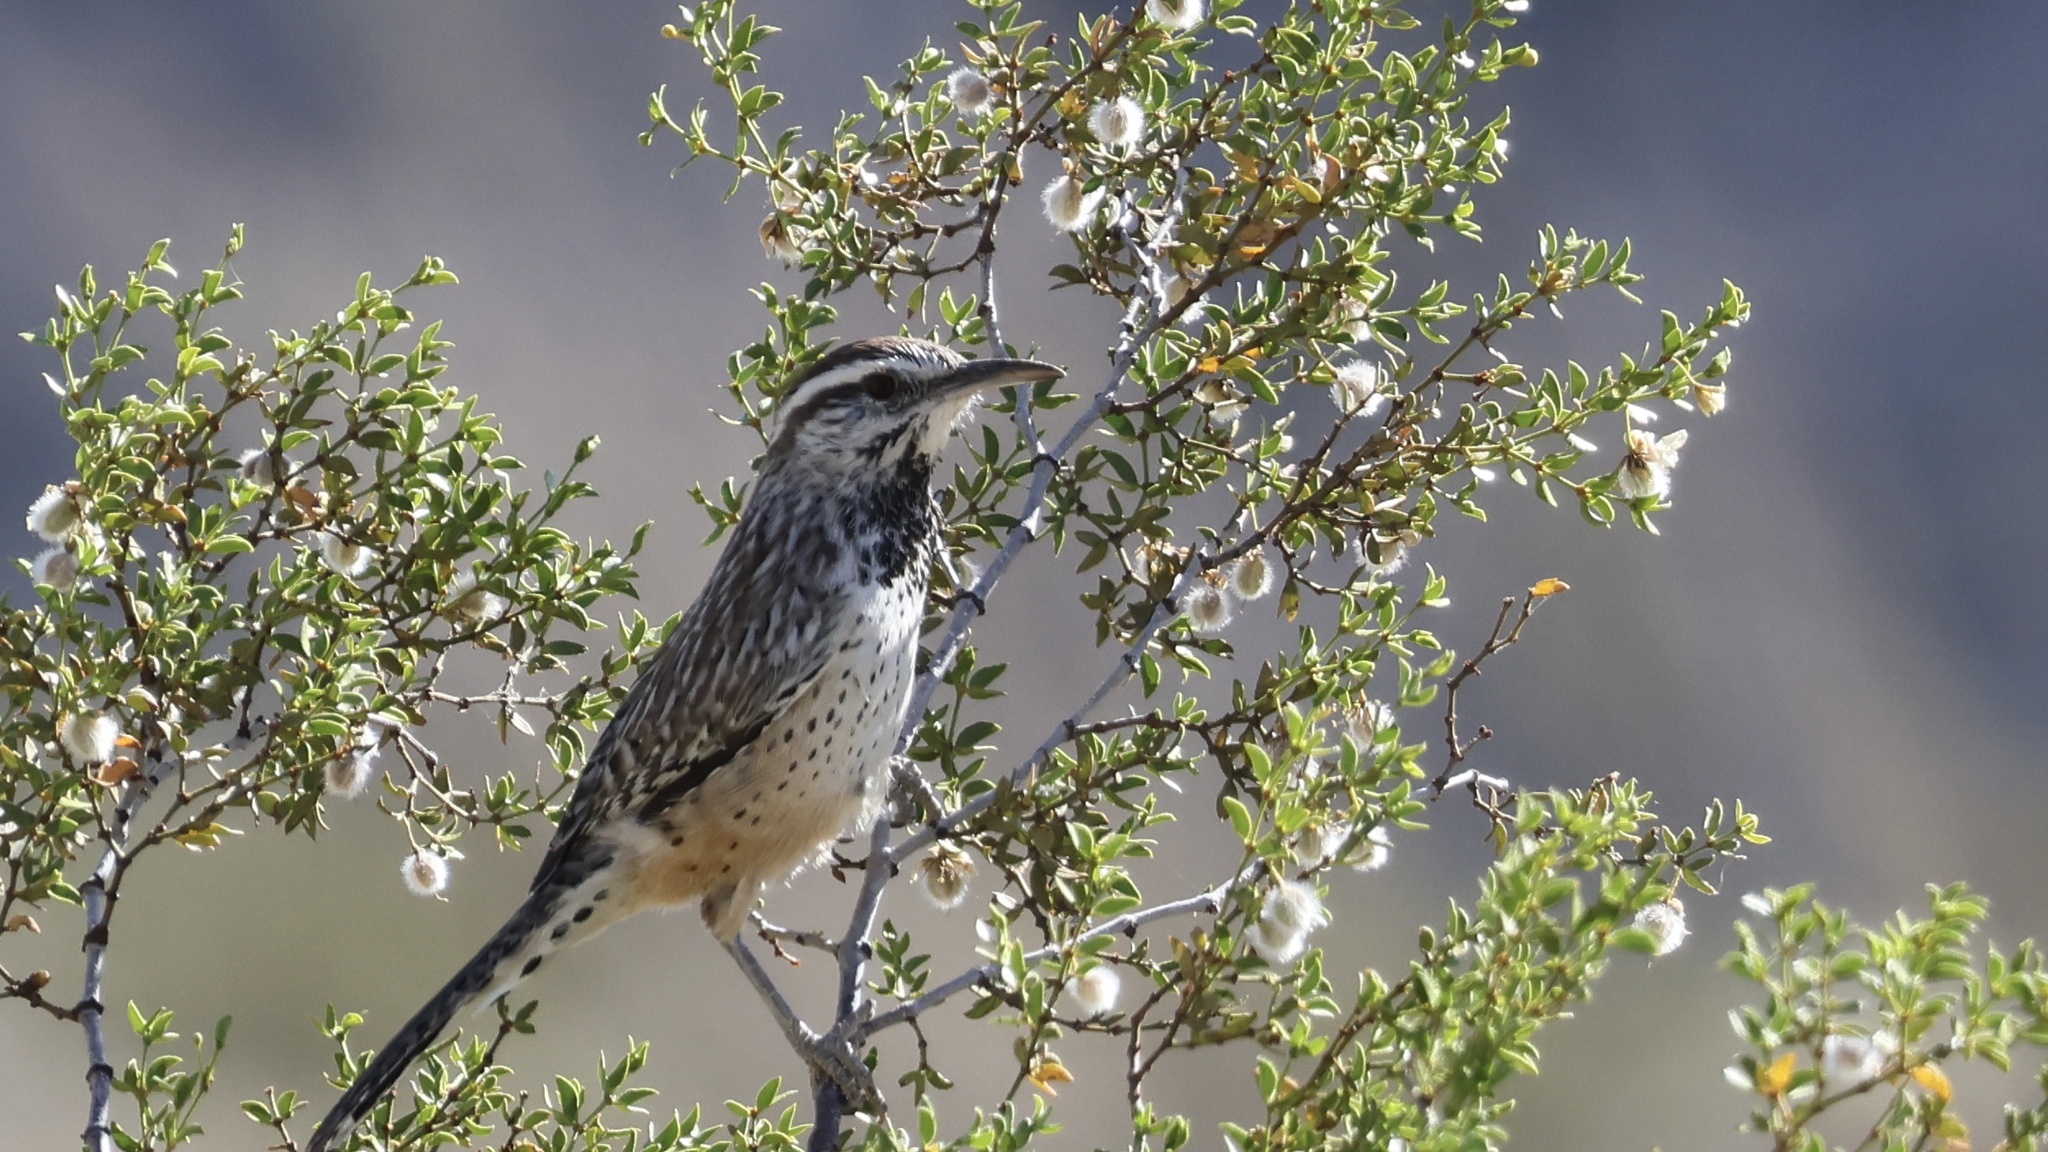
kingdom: Animalia
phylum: Chordata
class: Aves
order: Passeriformes
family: Troglodytidae
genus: Campylorhynchus
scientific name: Campylorhynchus brunneicapillus
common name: Cactus wren
